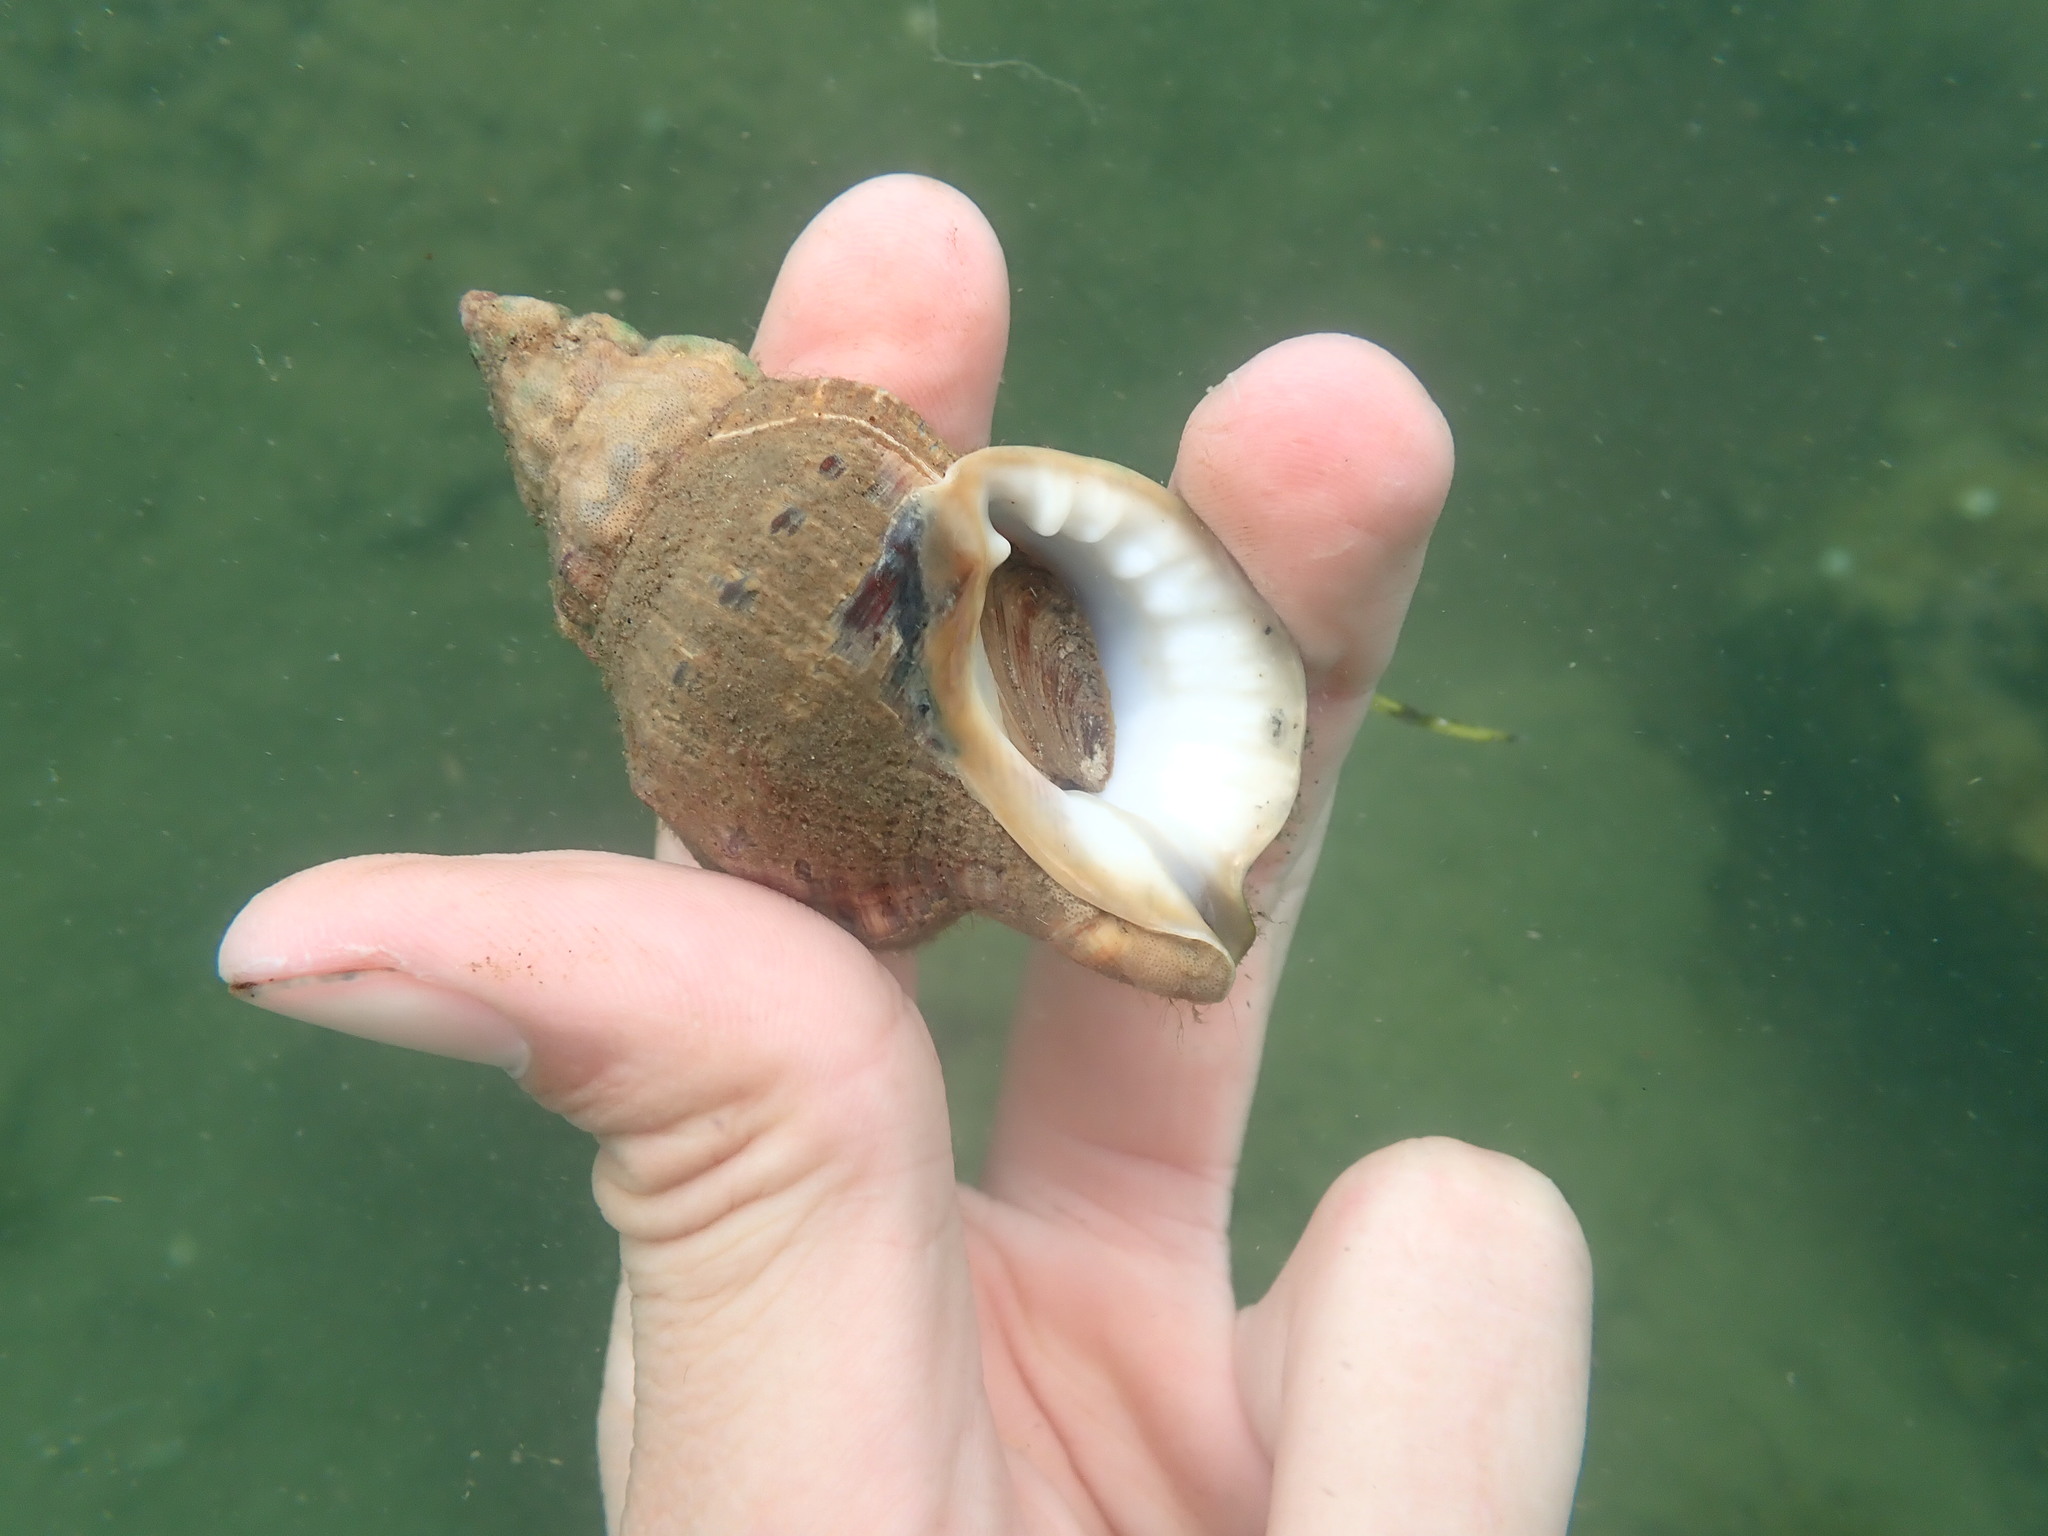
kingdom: Animalia
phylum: Mollusca
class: Gastropoda
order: Littorinimorpha
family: Ranellidae
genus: Ranella
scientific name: Ranella australasia
